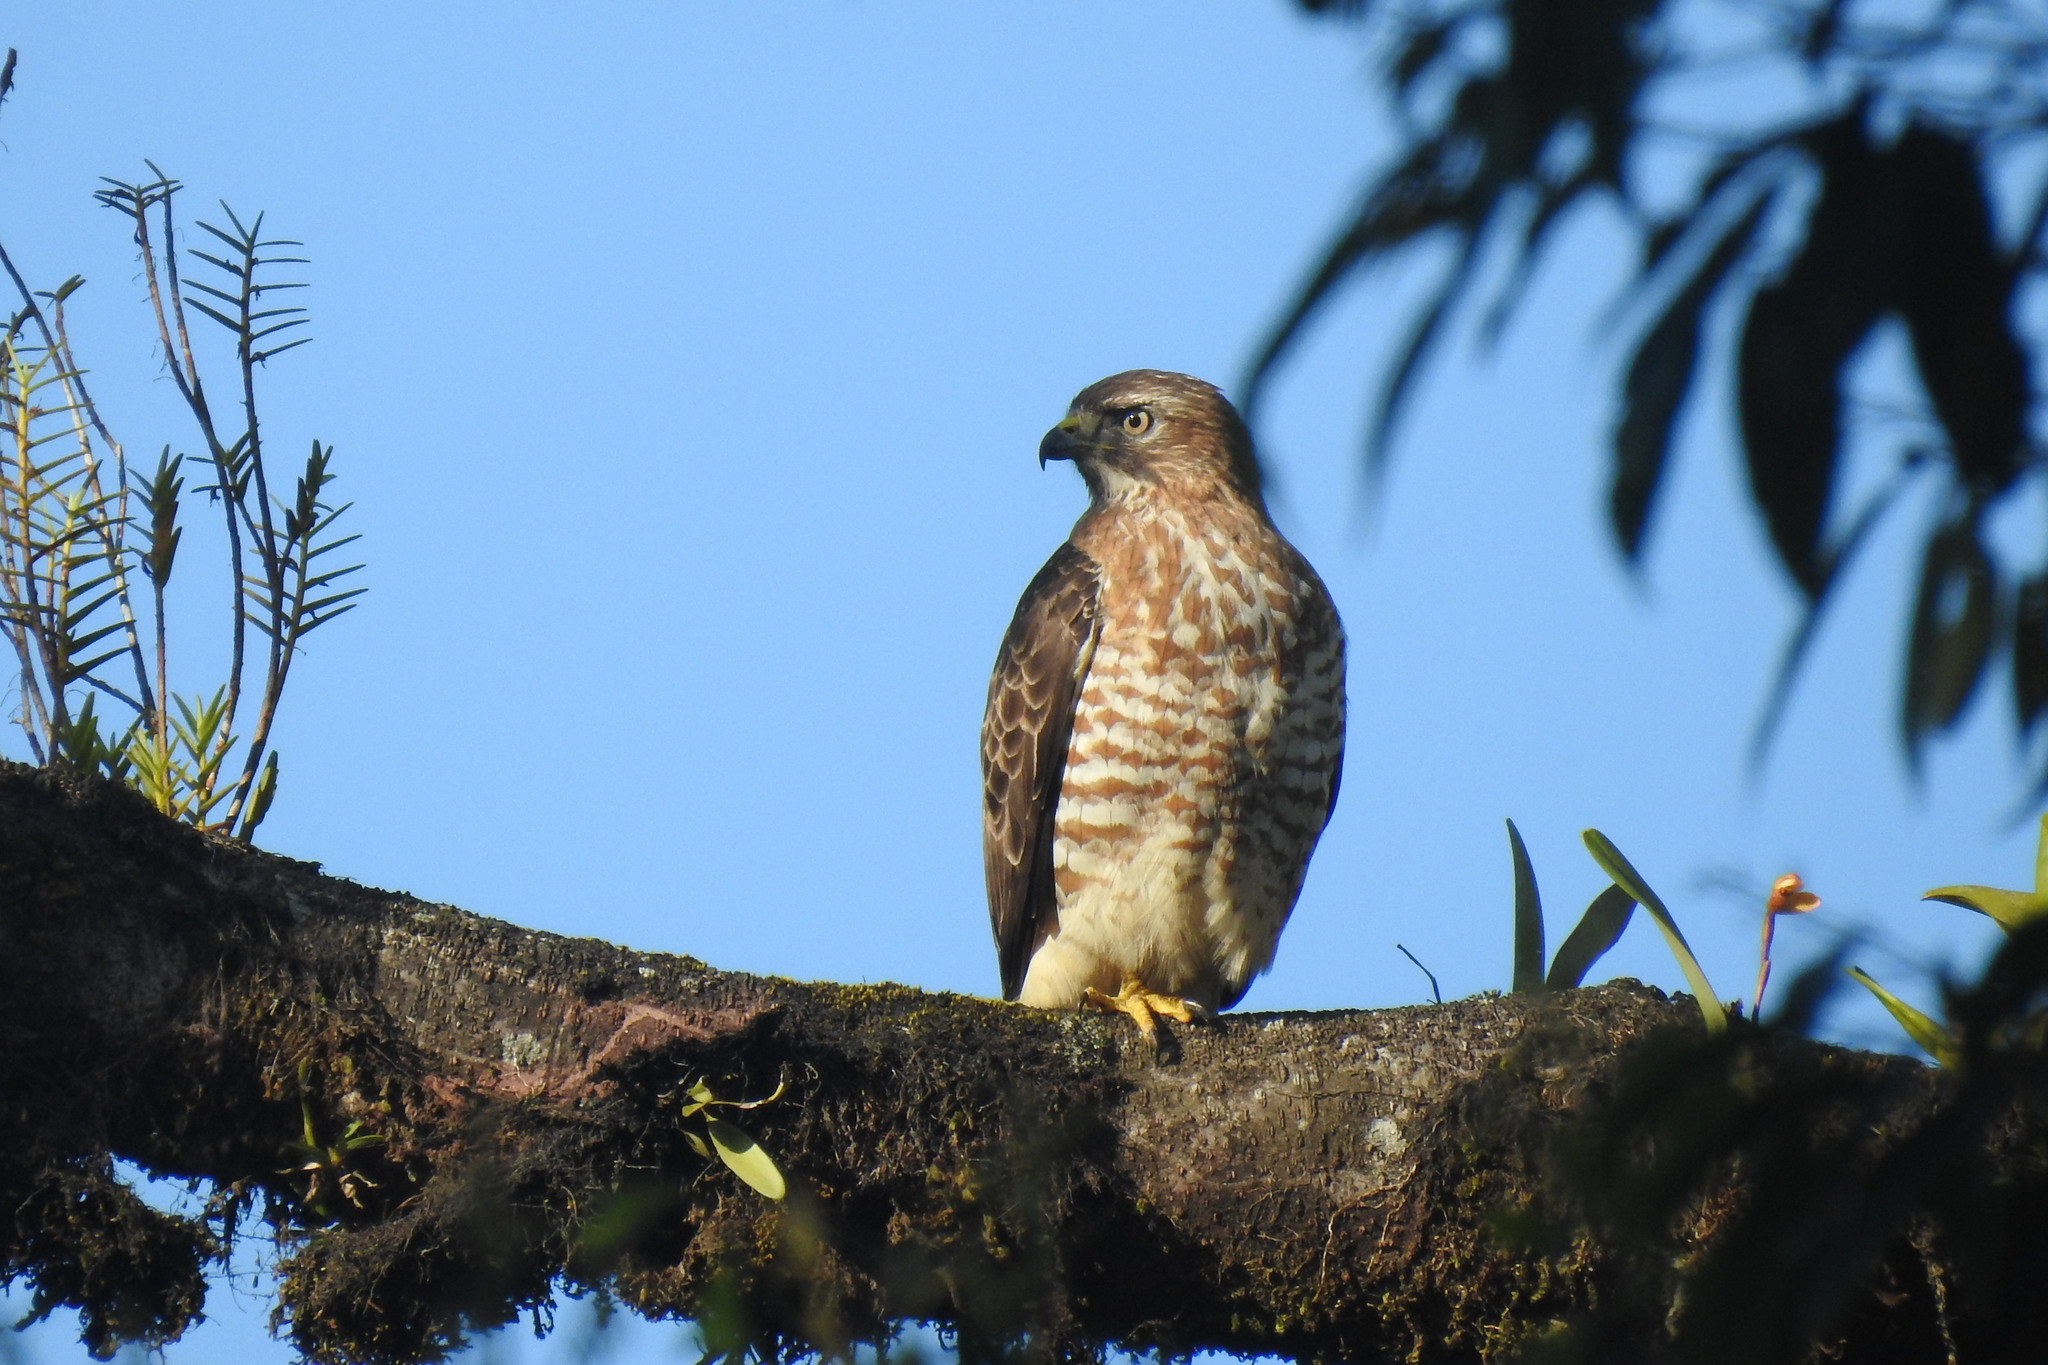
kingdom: Animalia
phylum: Chordata
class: Aves
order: Accipitriformes
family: Accipitridae
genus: Buteo
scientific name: Buteo platypterus
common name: Broad-winged hawk
